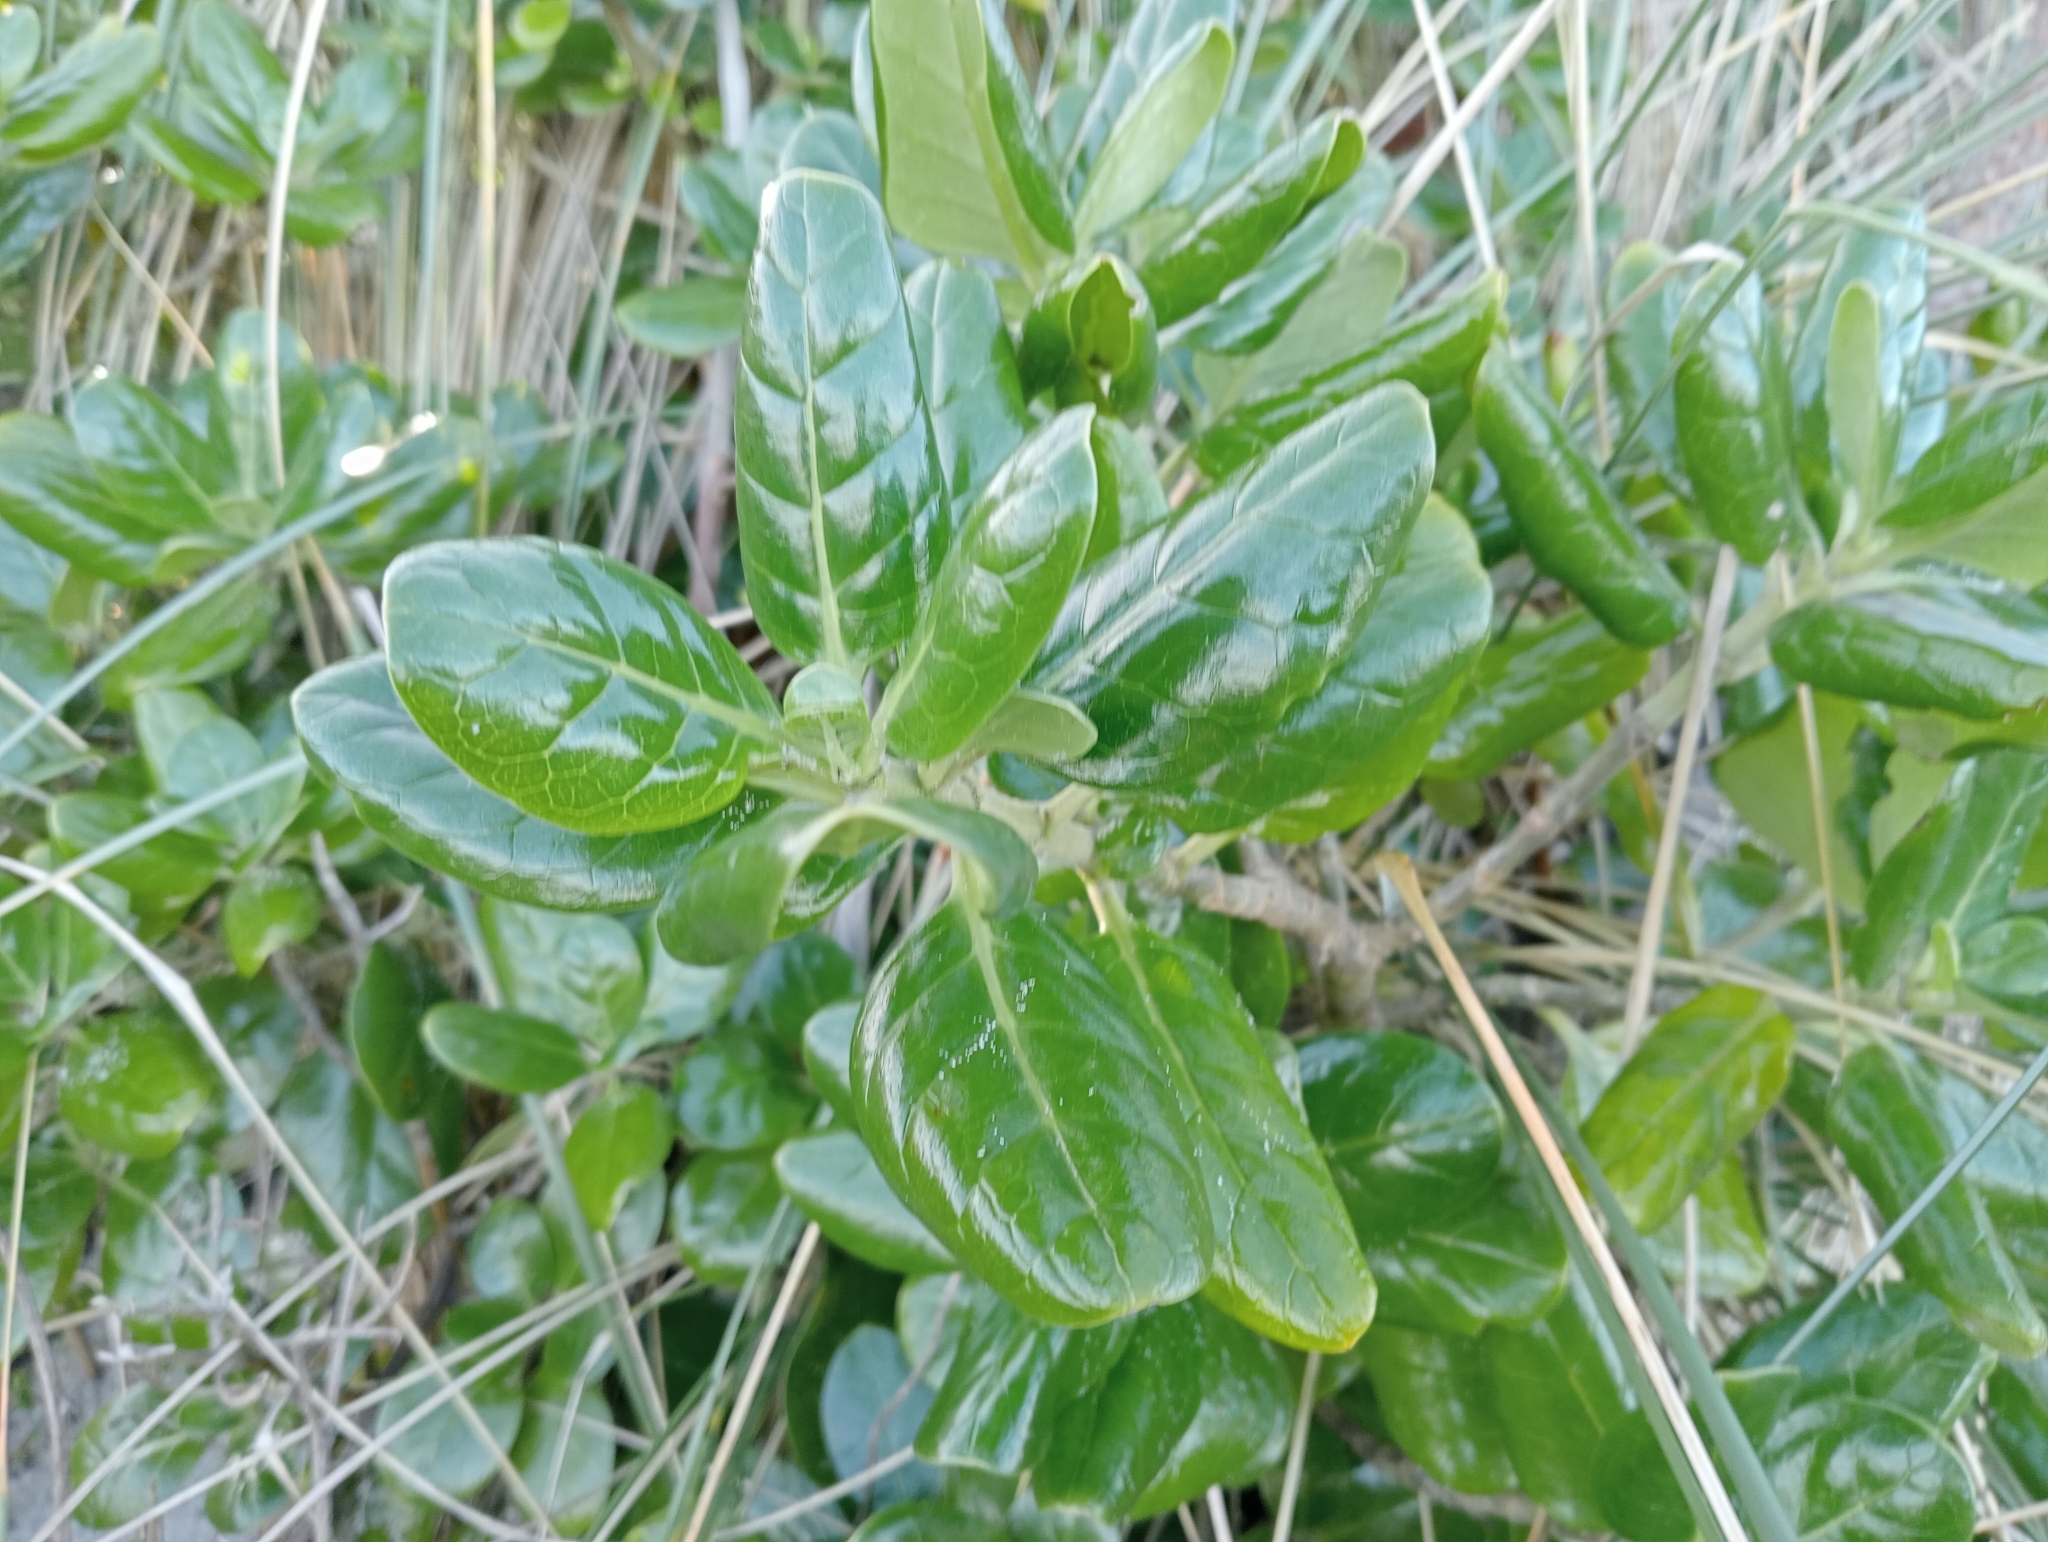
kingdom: Plantae
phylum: Tracheophyta
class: Magnoliopsida
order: Gentianales
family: Rubiaceae
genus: Coprosma
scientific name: Coprosma repens
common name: Tree bedstraw
